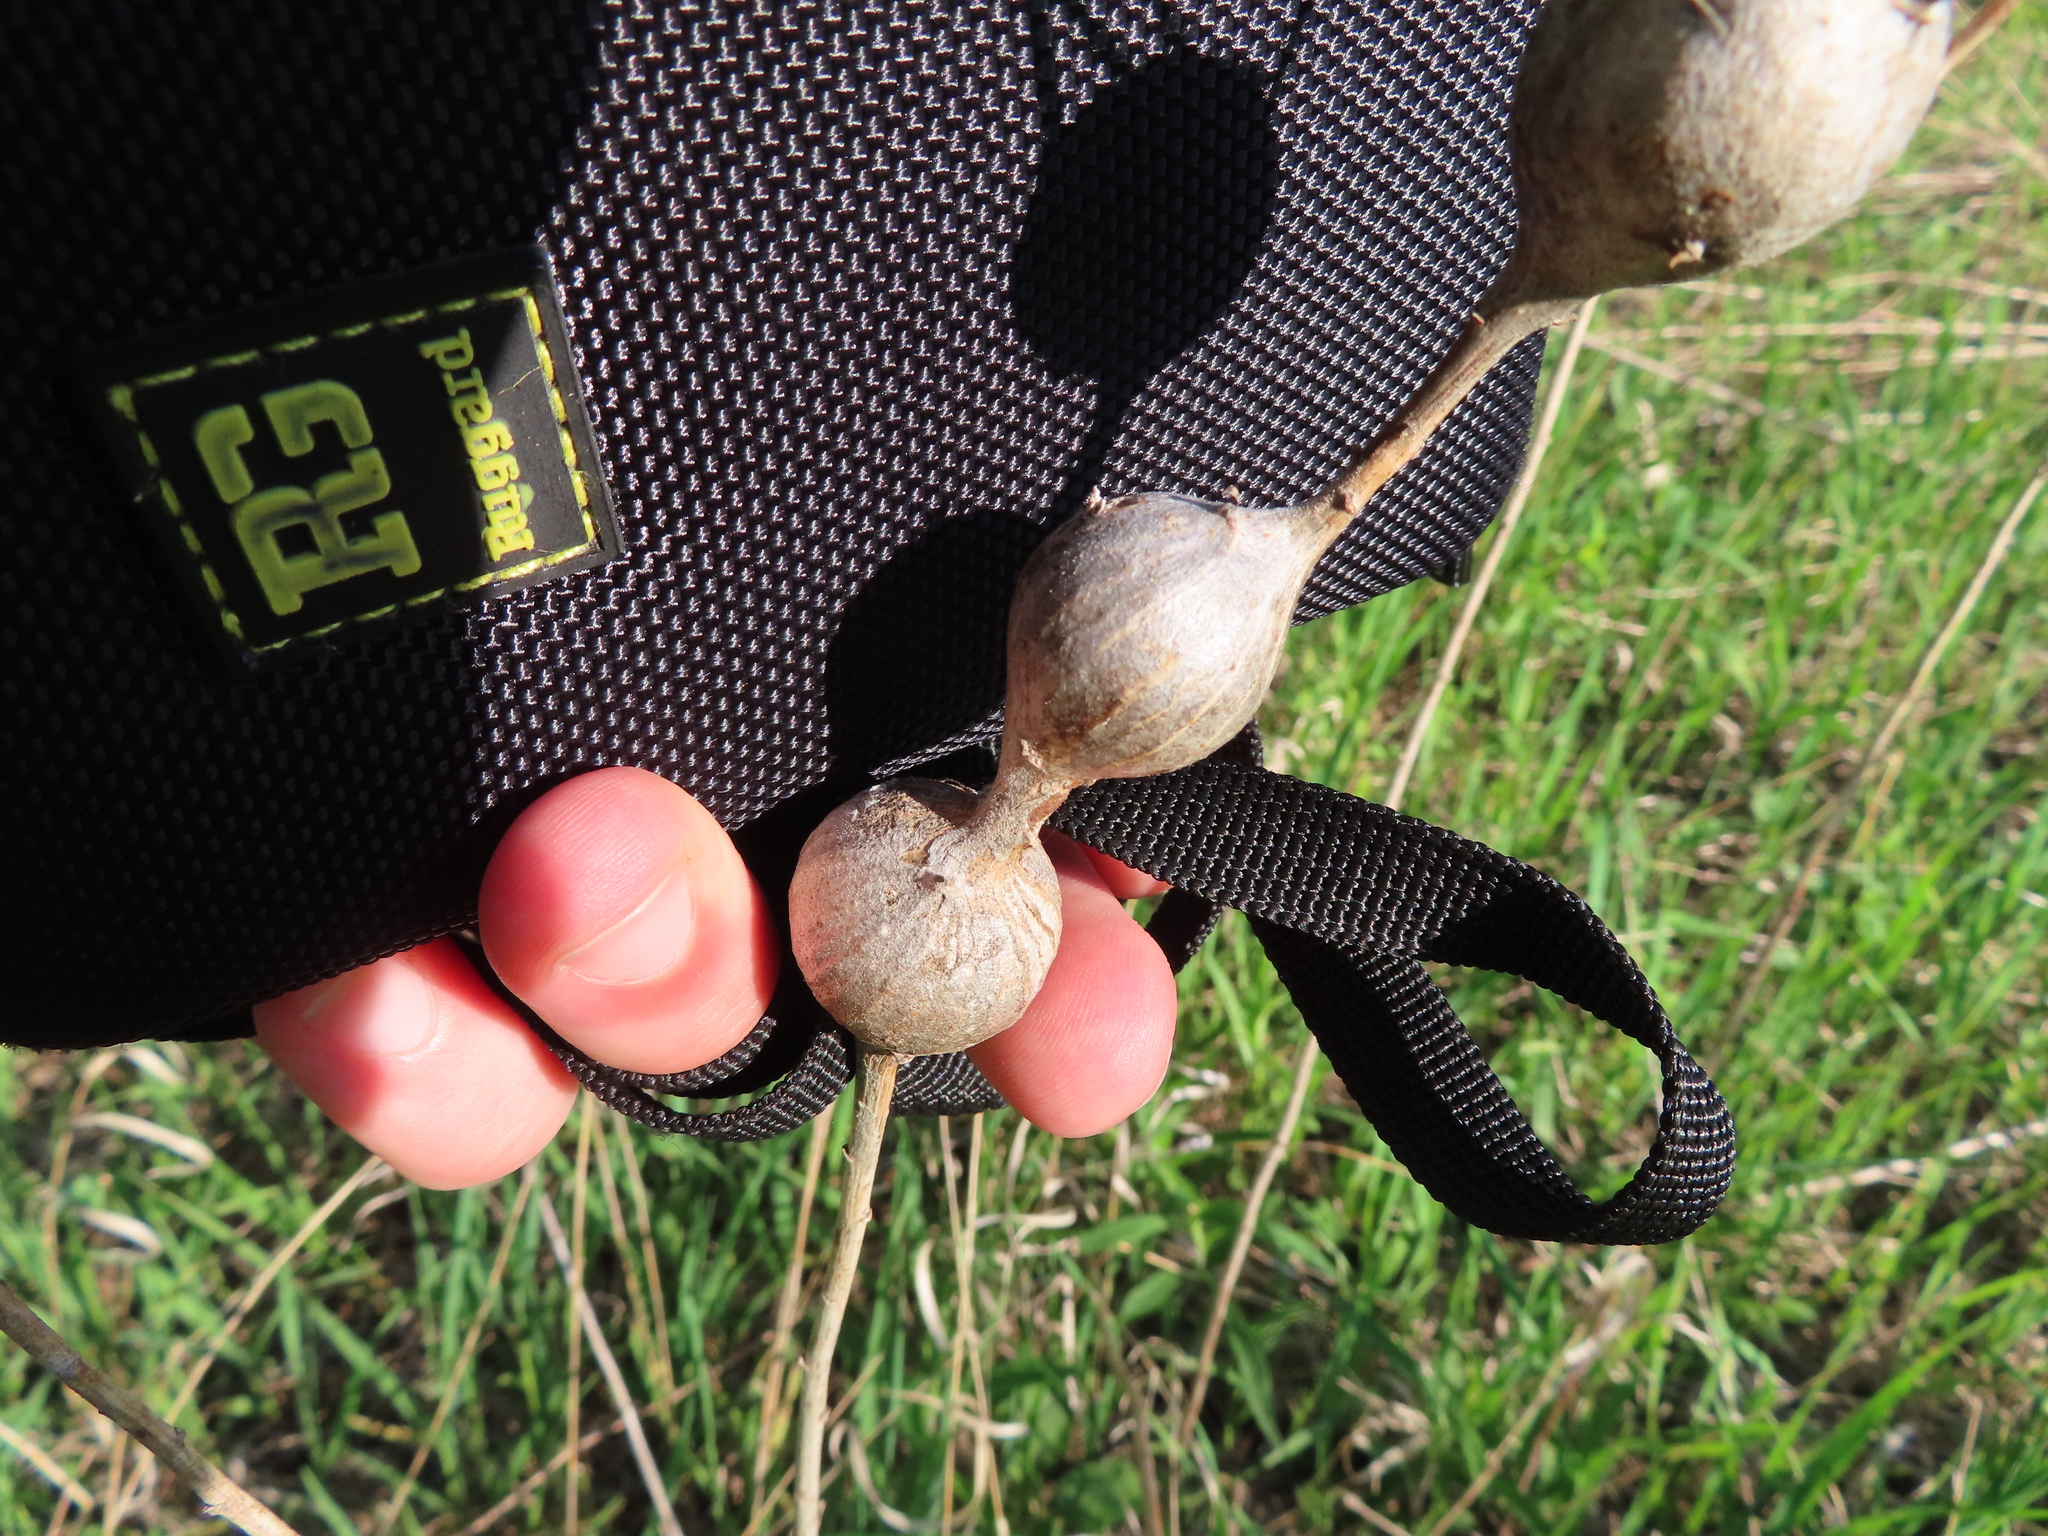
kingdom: Animalia
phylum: Arthropoda
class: Insecta
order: Diptera
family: Tephritidae
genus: Eurosta
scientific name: Eurosta solidaginis
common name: Goldenrod gall fly
